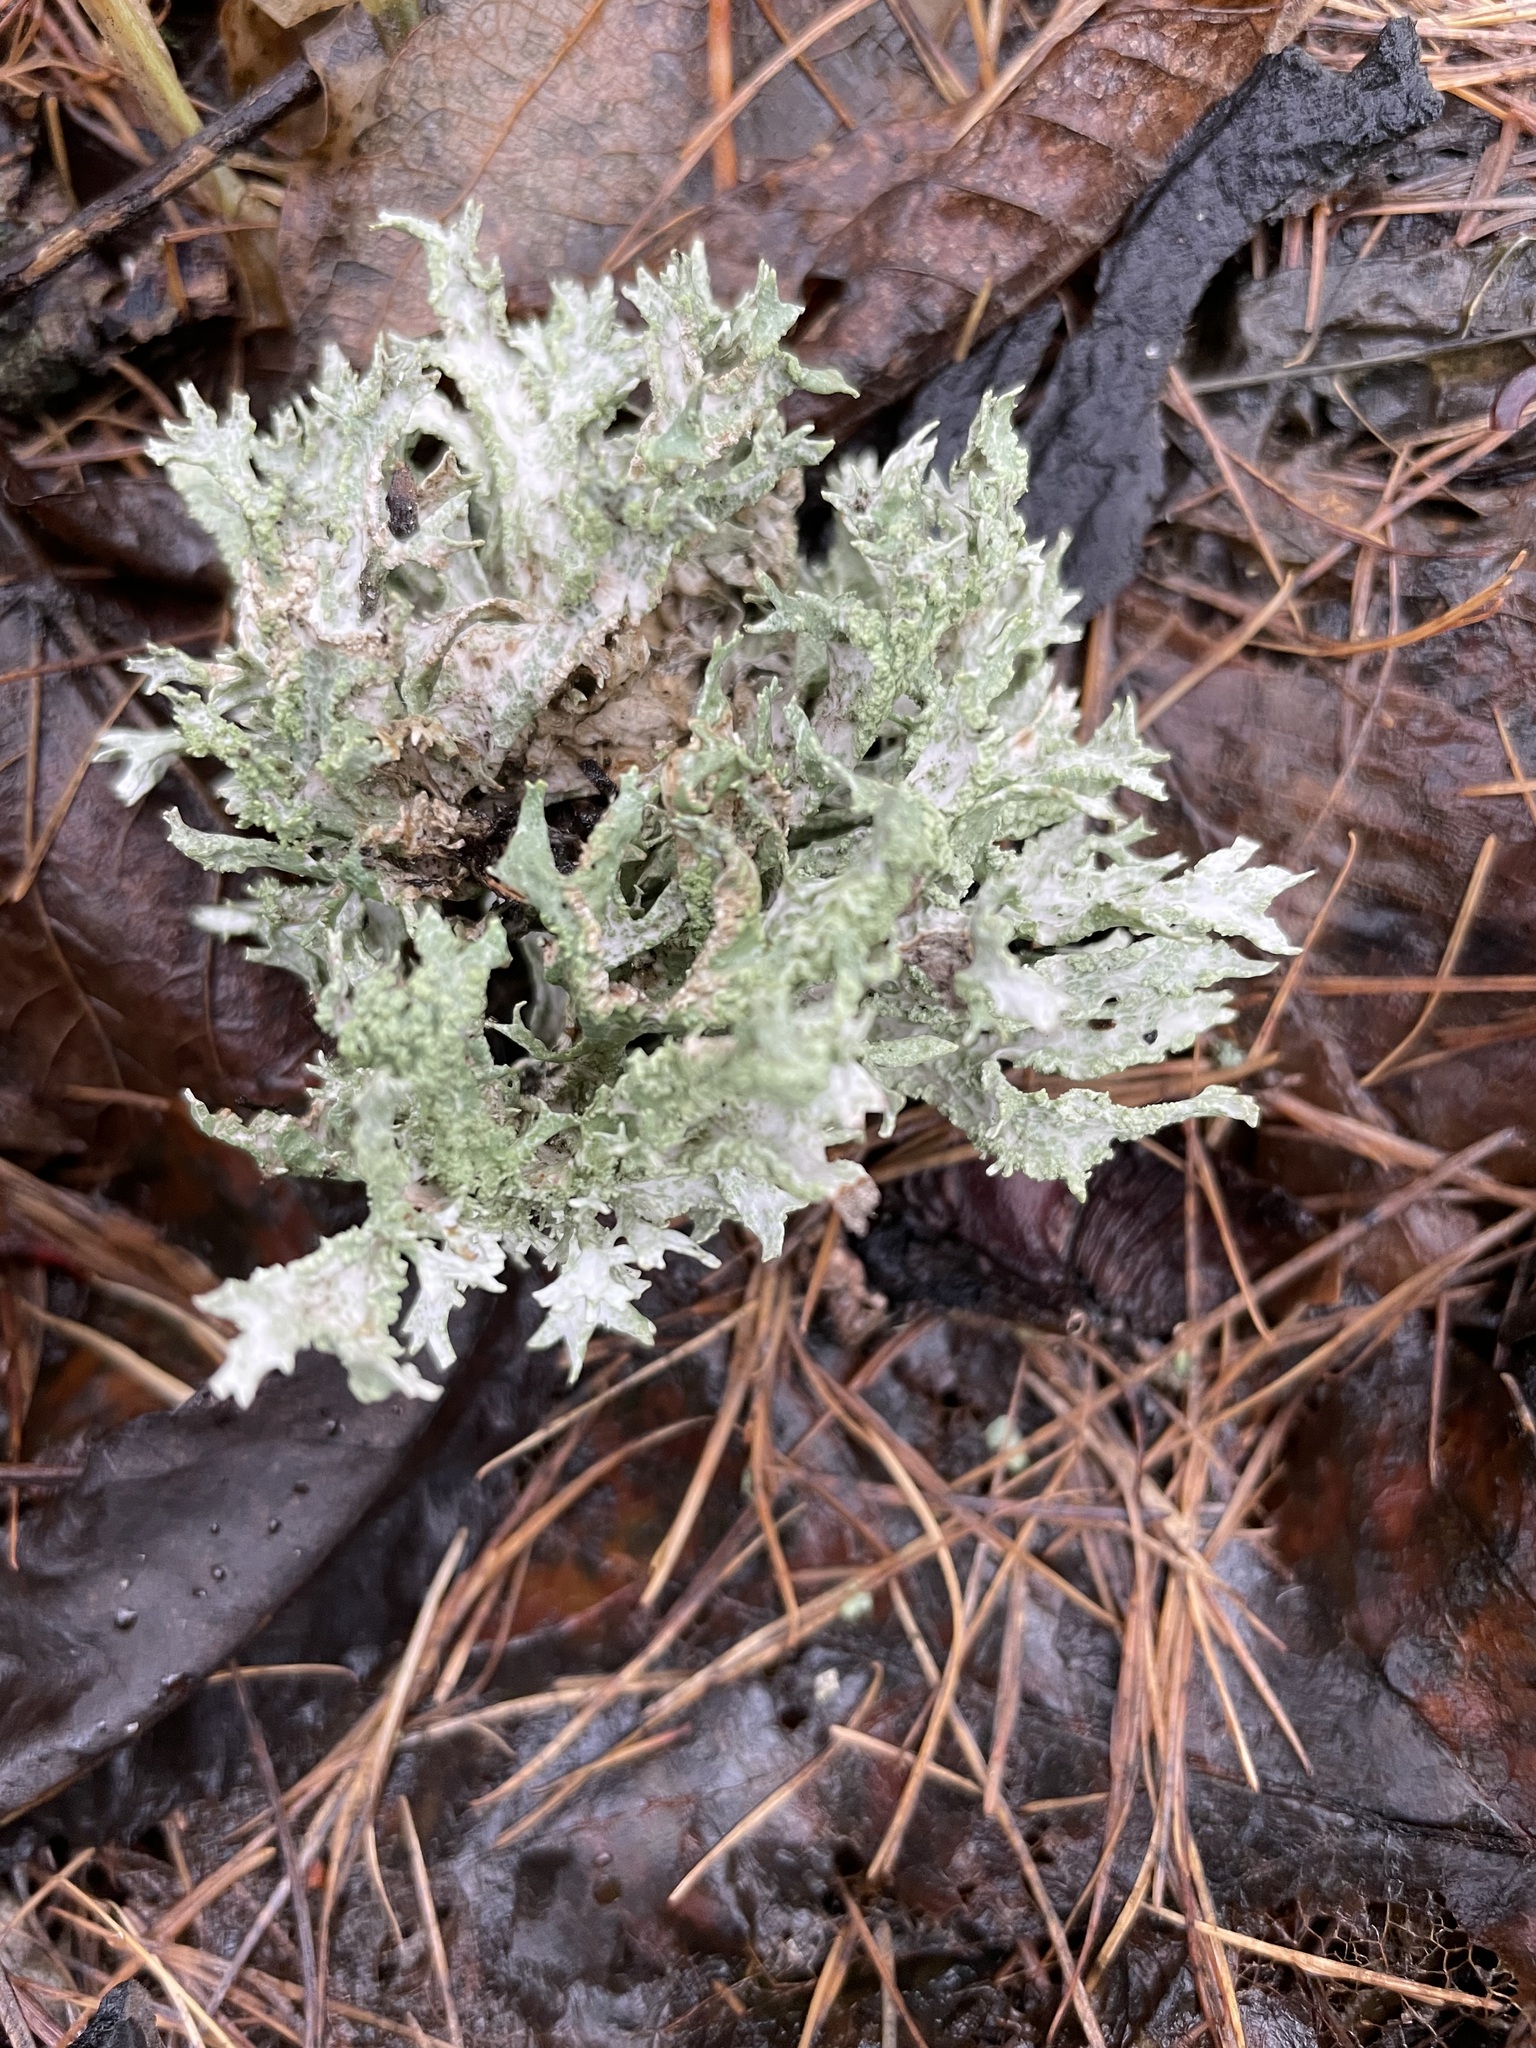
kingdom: Fungi
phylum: Ascomycota
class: Lecanoromycetes
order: Lecanorales
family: Parmeliaceae
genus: Evernia
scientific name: Evernia prunastri
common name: Oak moss
